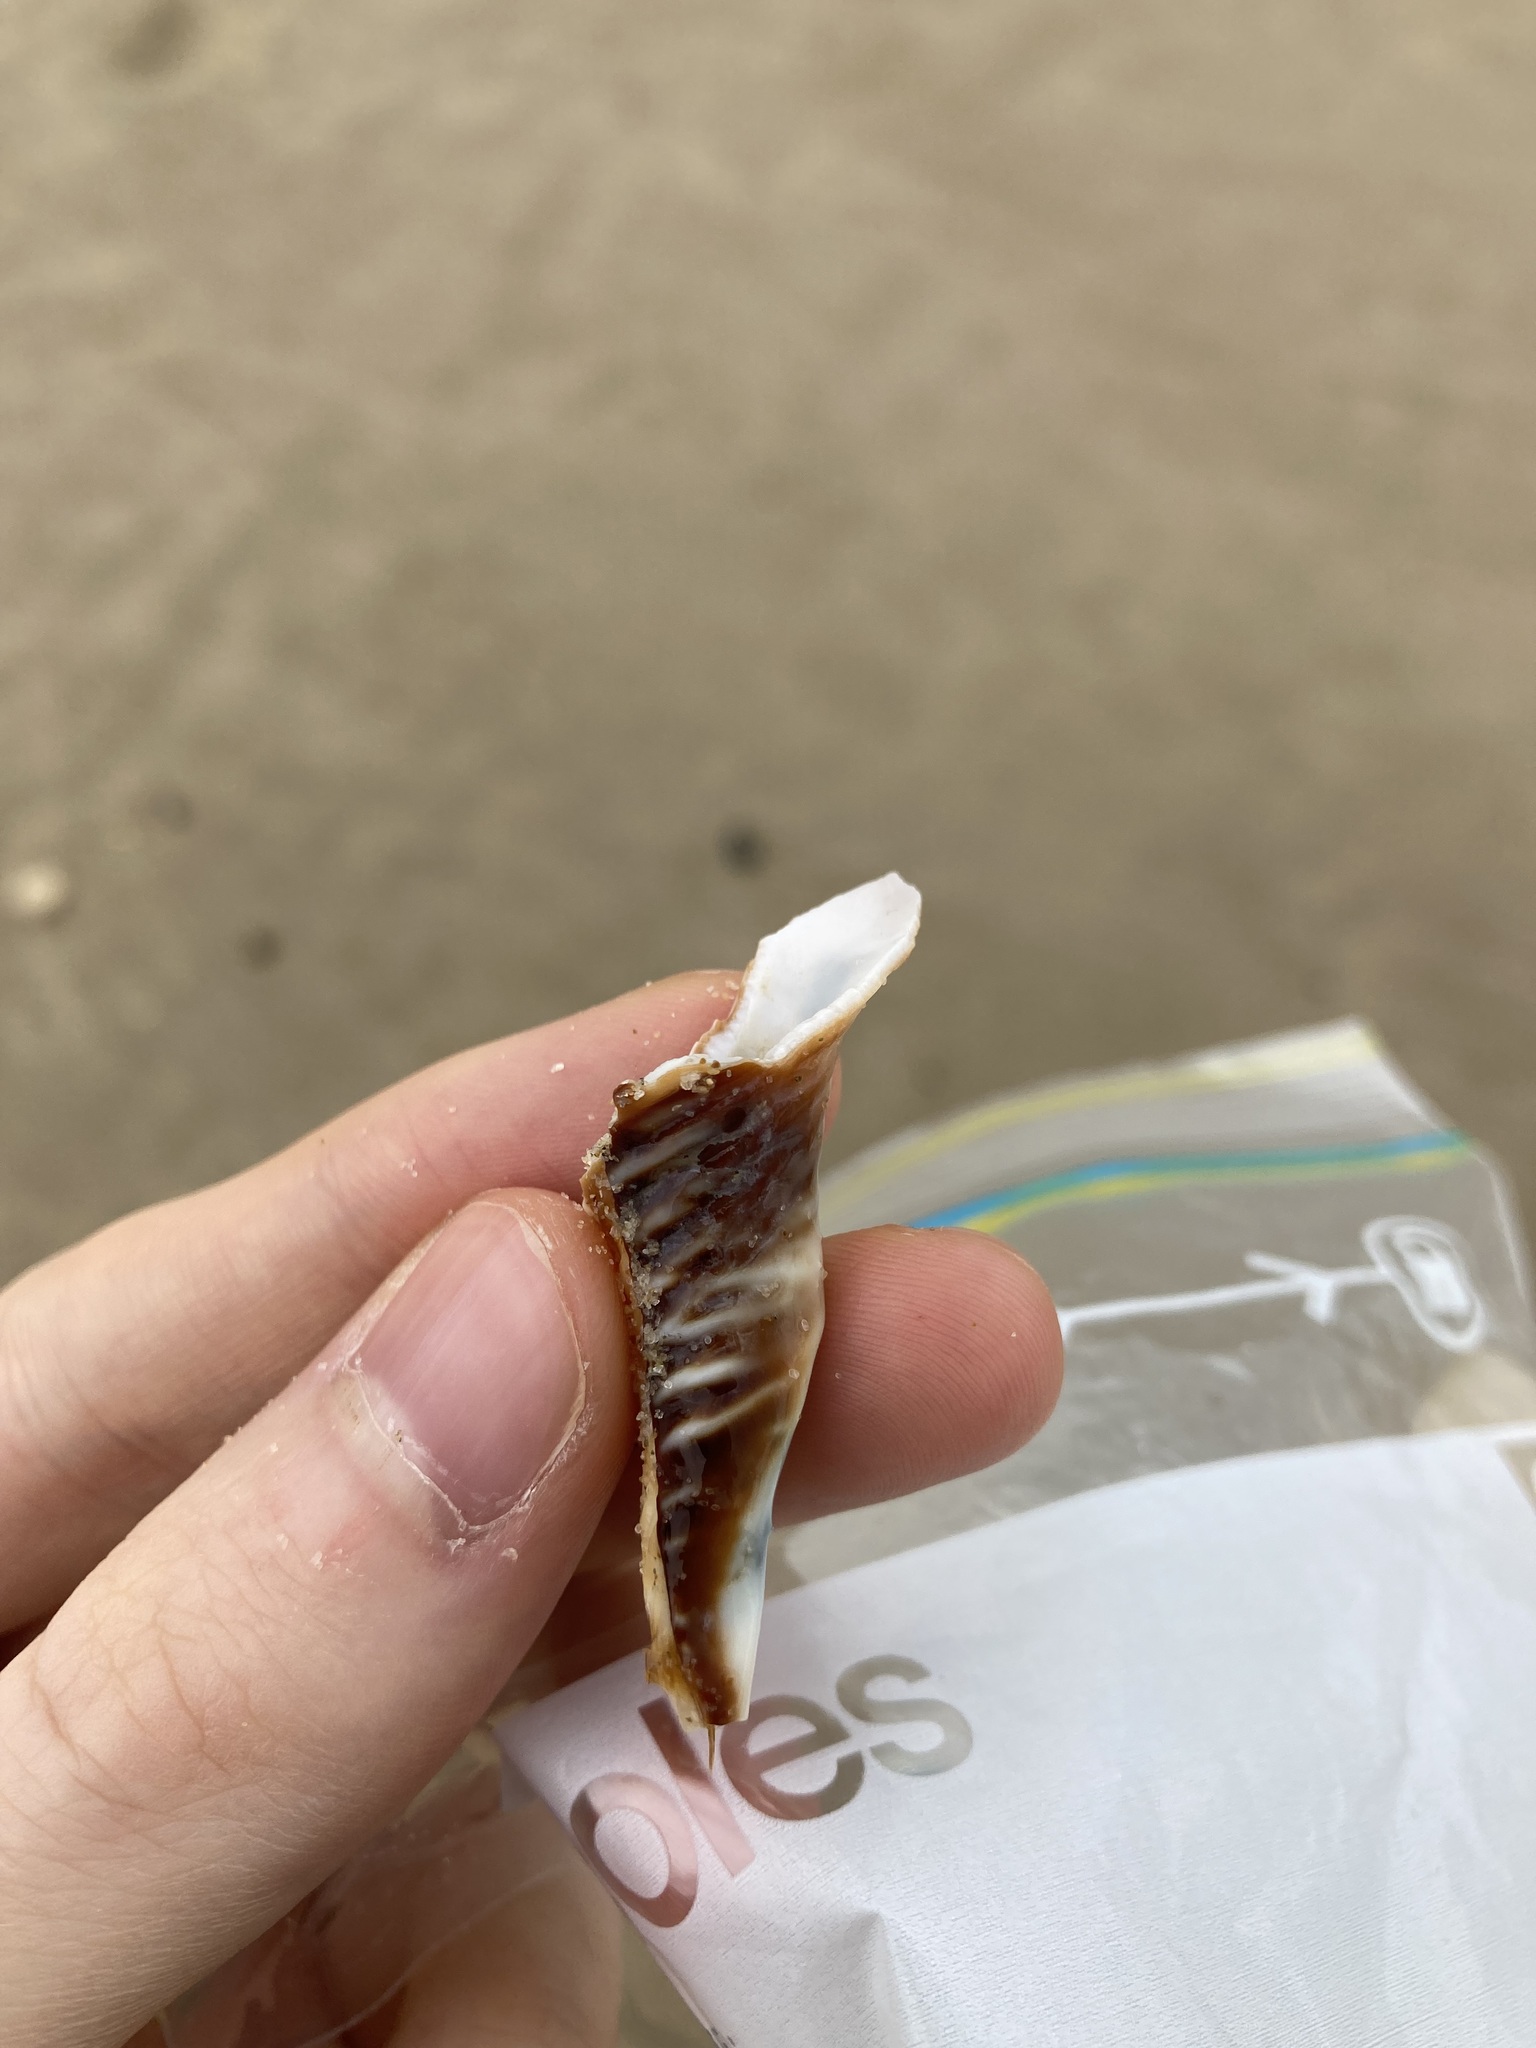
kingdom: Animalia
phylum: Mollusca
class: Gastropoda
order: Littorinimorpha
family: Cymatiidae
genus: Monoplex
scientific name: Monoplex parthenopeus
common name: Giant triton
